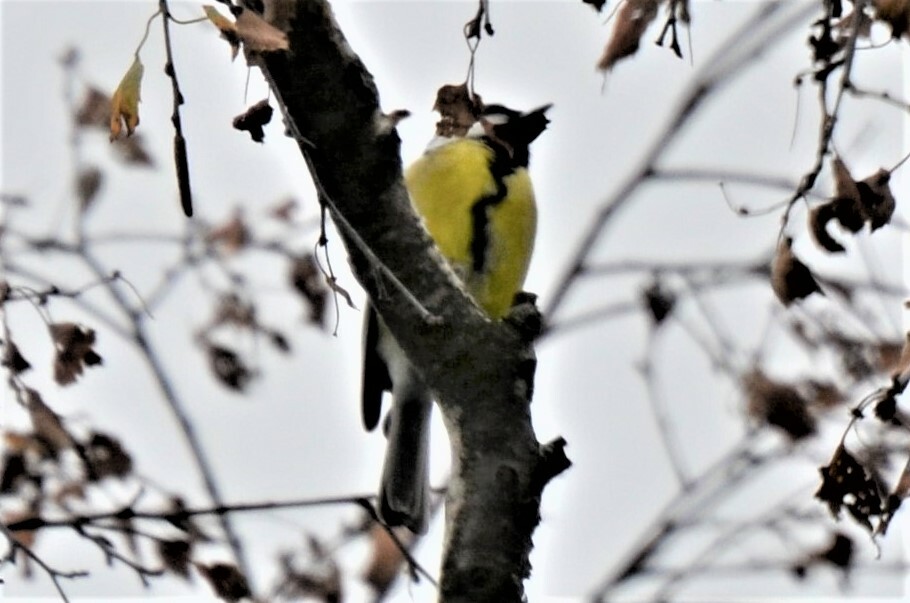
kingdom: Animalia
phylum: Chordata
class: Aves
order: Passeriformes
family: Paridae
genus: Parus
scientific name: Parus major
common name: Great tit
